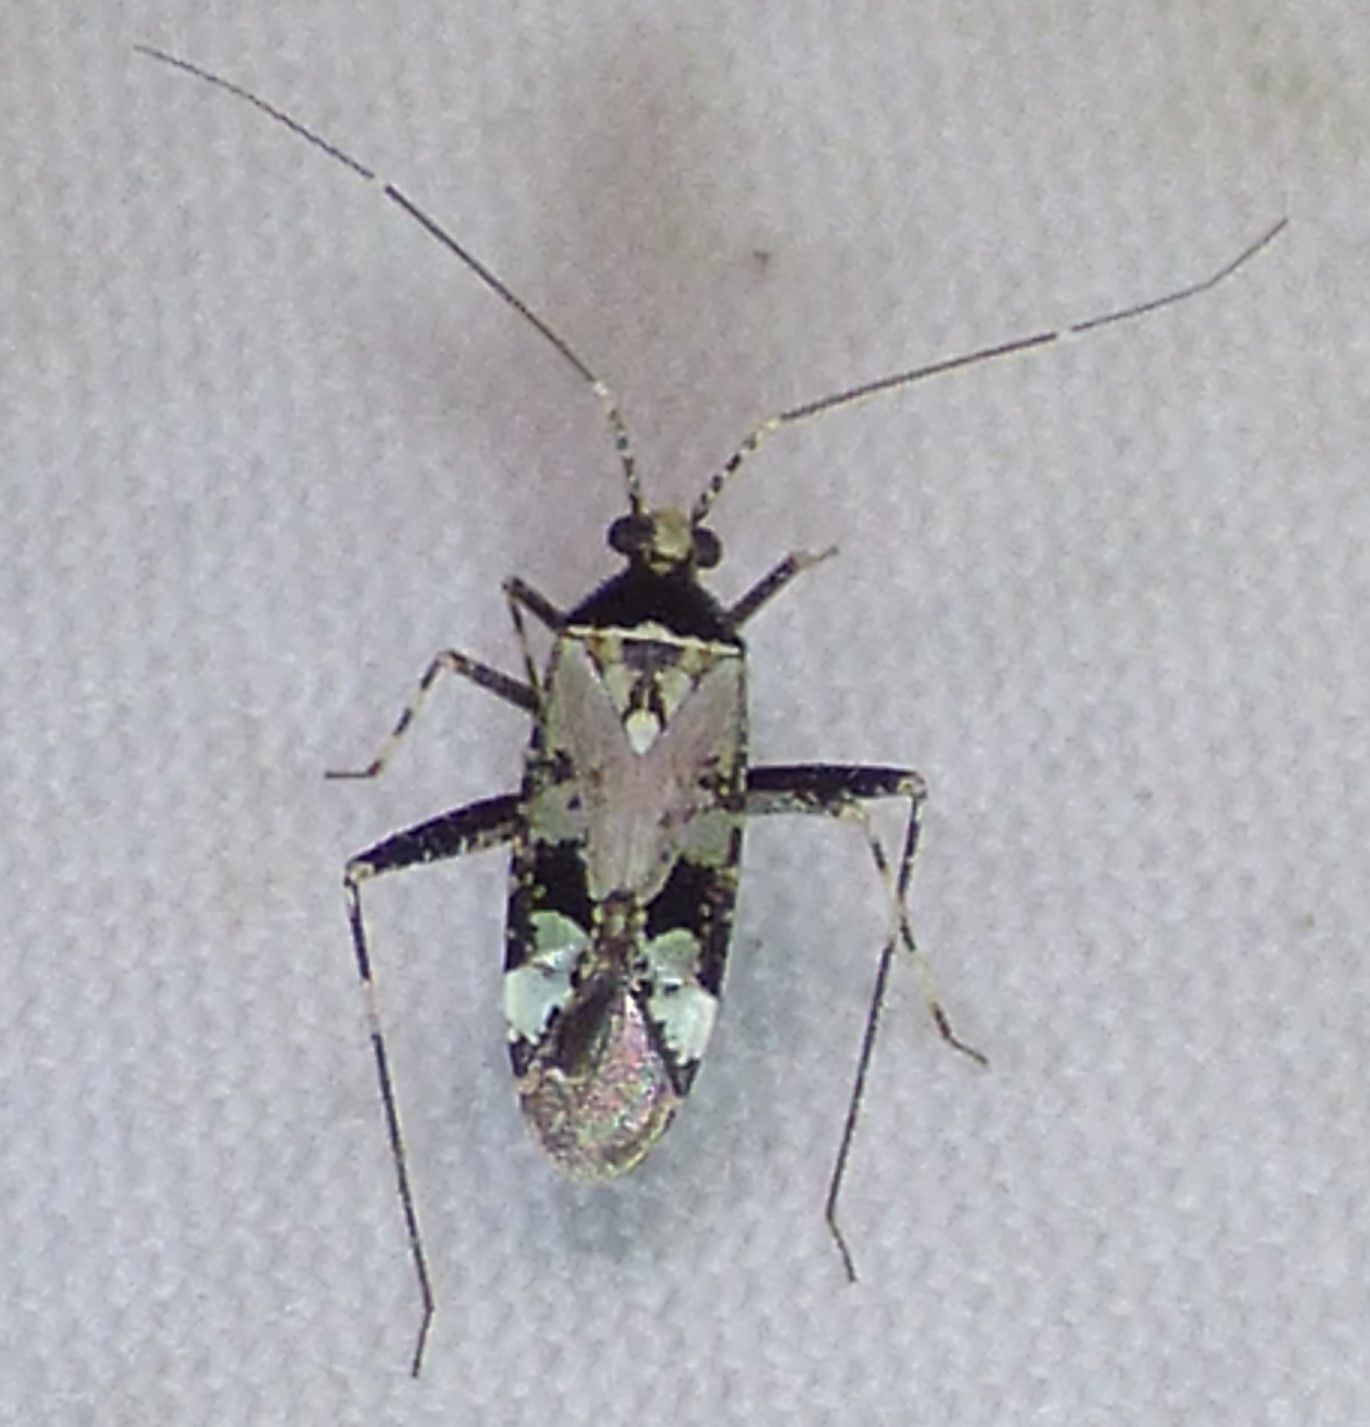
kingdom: Animalia
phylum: Arthropoda
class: Insecta
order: Hemiptera
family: Miridae
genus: Phytocoris
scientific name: Phytocoris nigricollis
